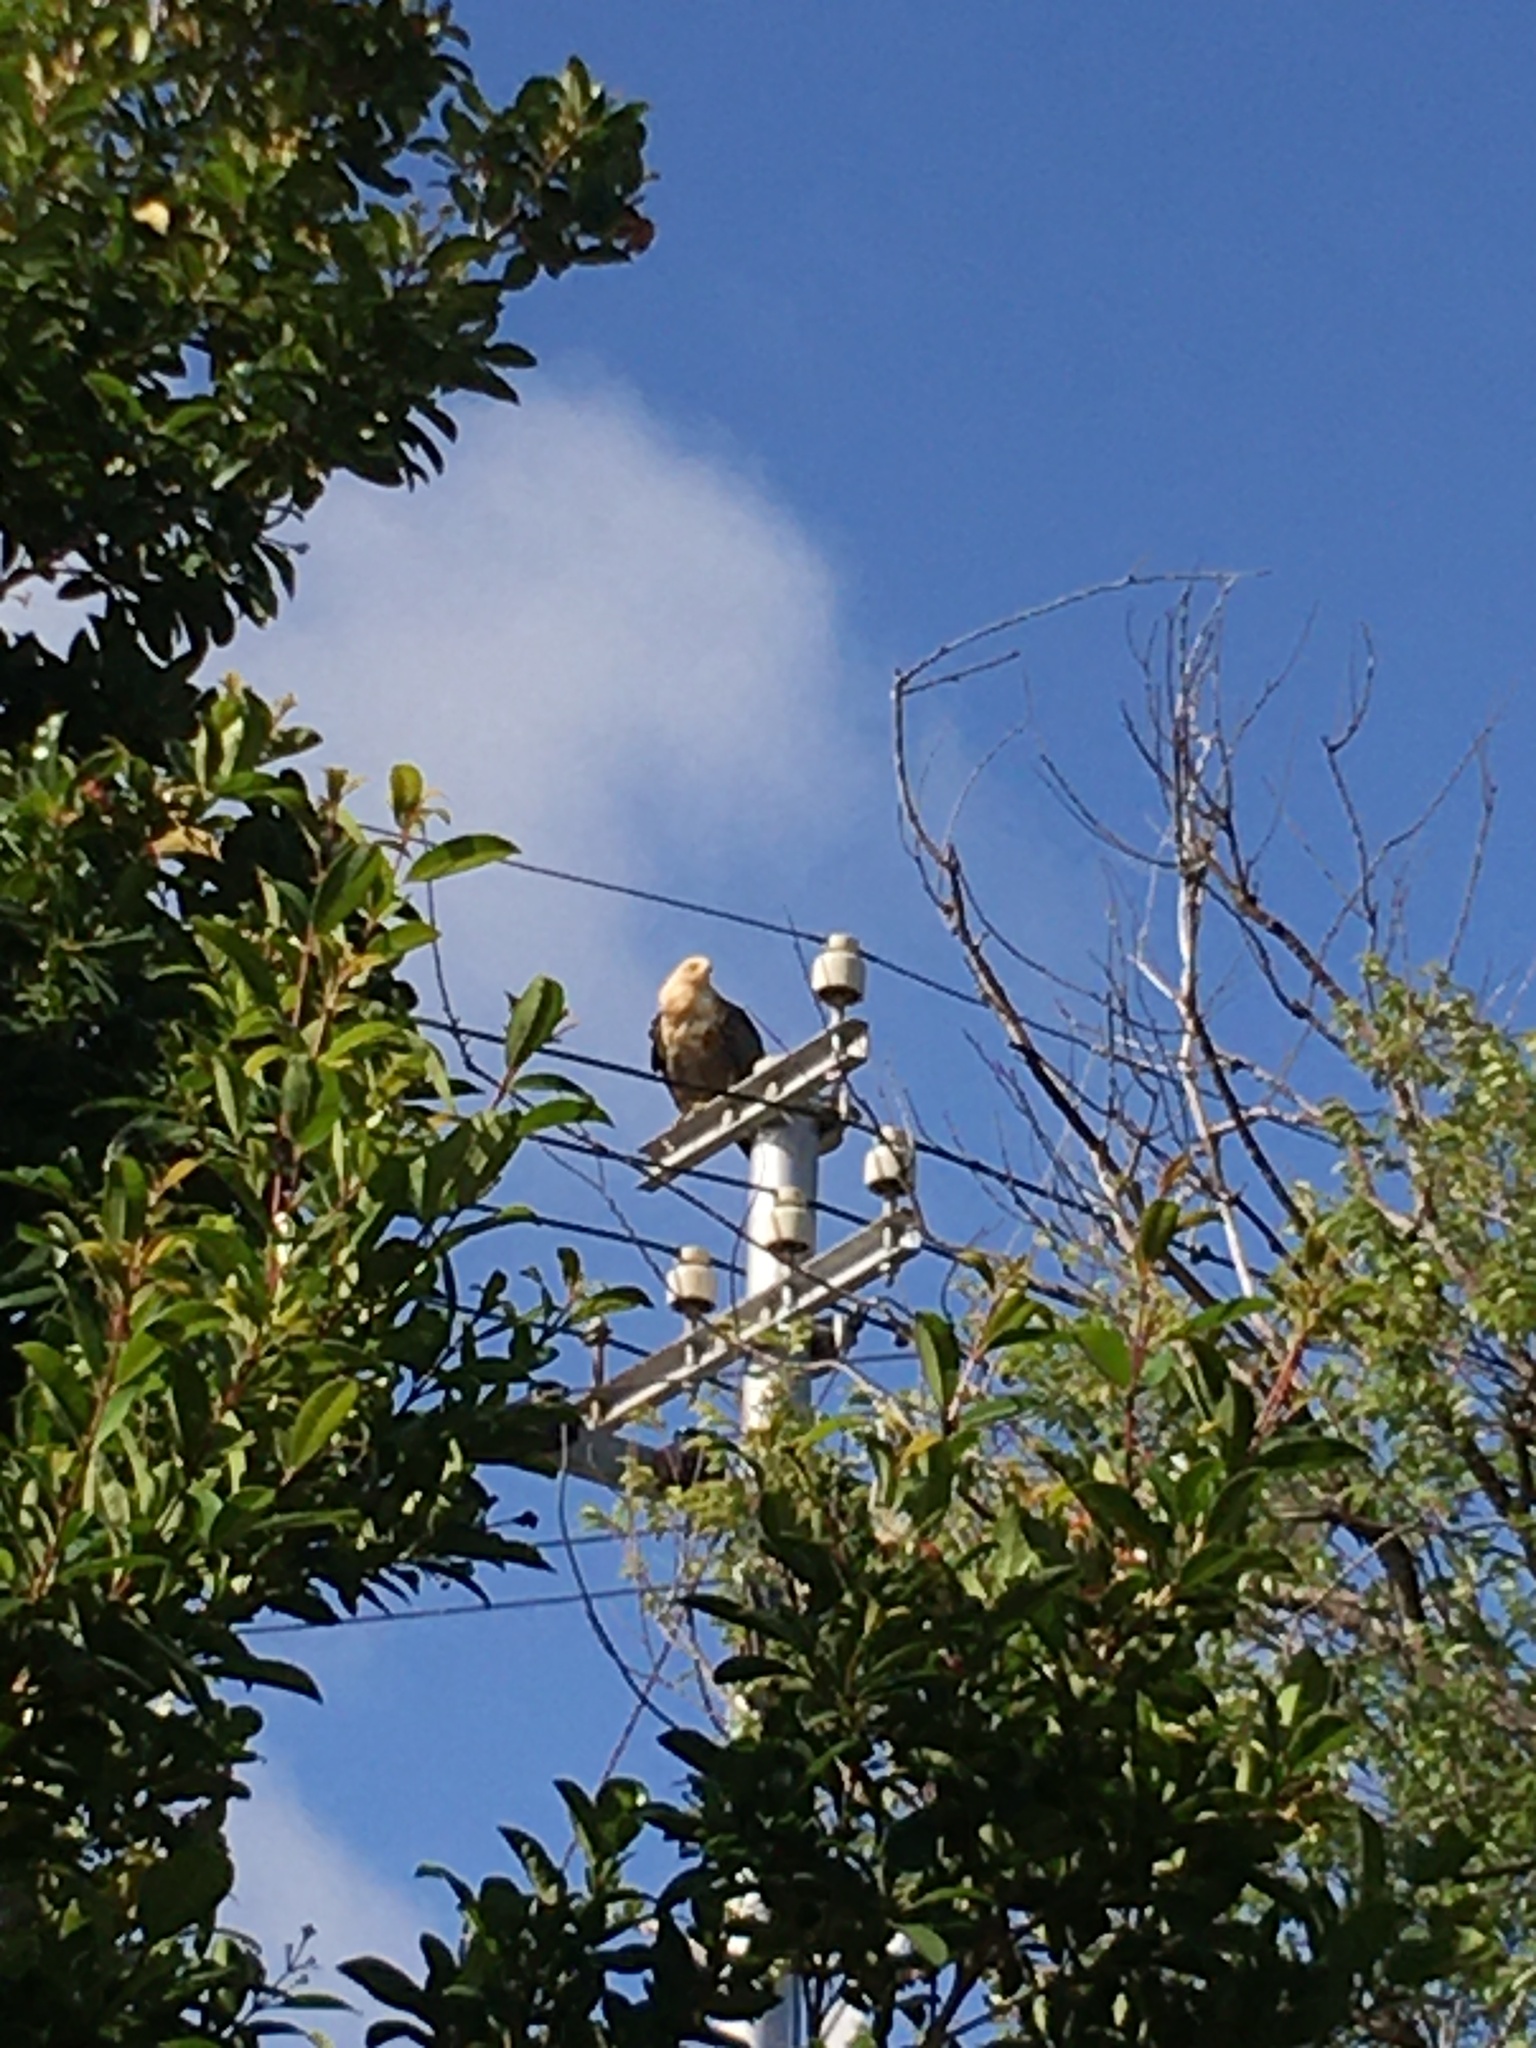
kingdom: Animalia
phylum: Chordata
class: Aves
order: Accipitriformes
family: Accipitridae
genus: Polyboroides
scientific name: Polyboroides typus
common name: African harrier-hawk
